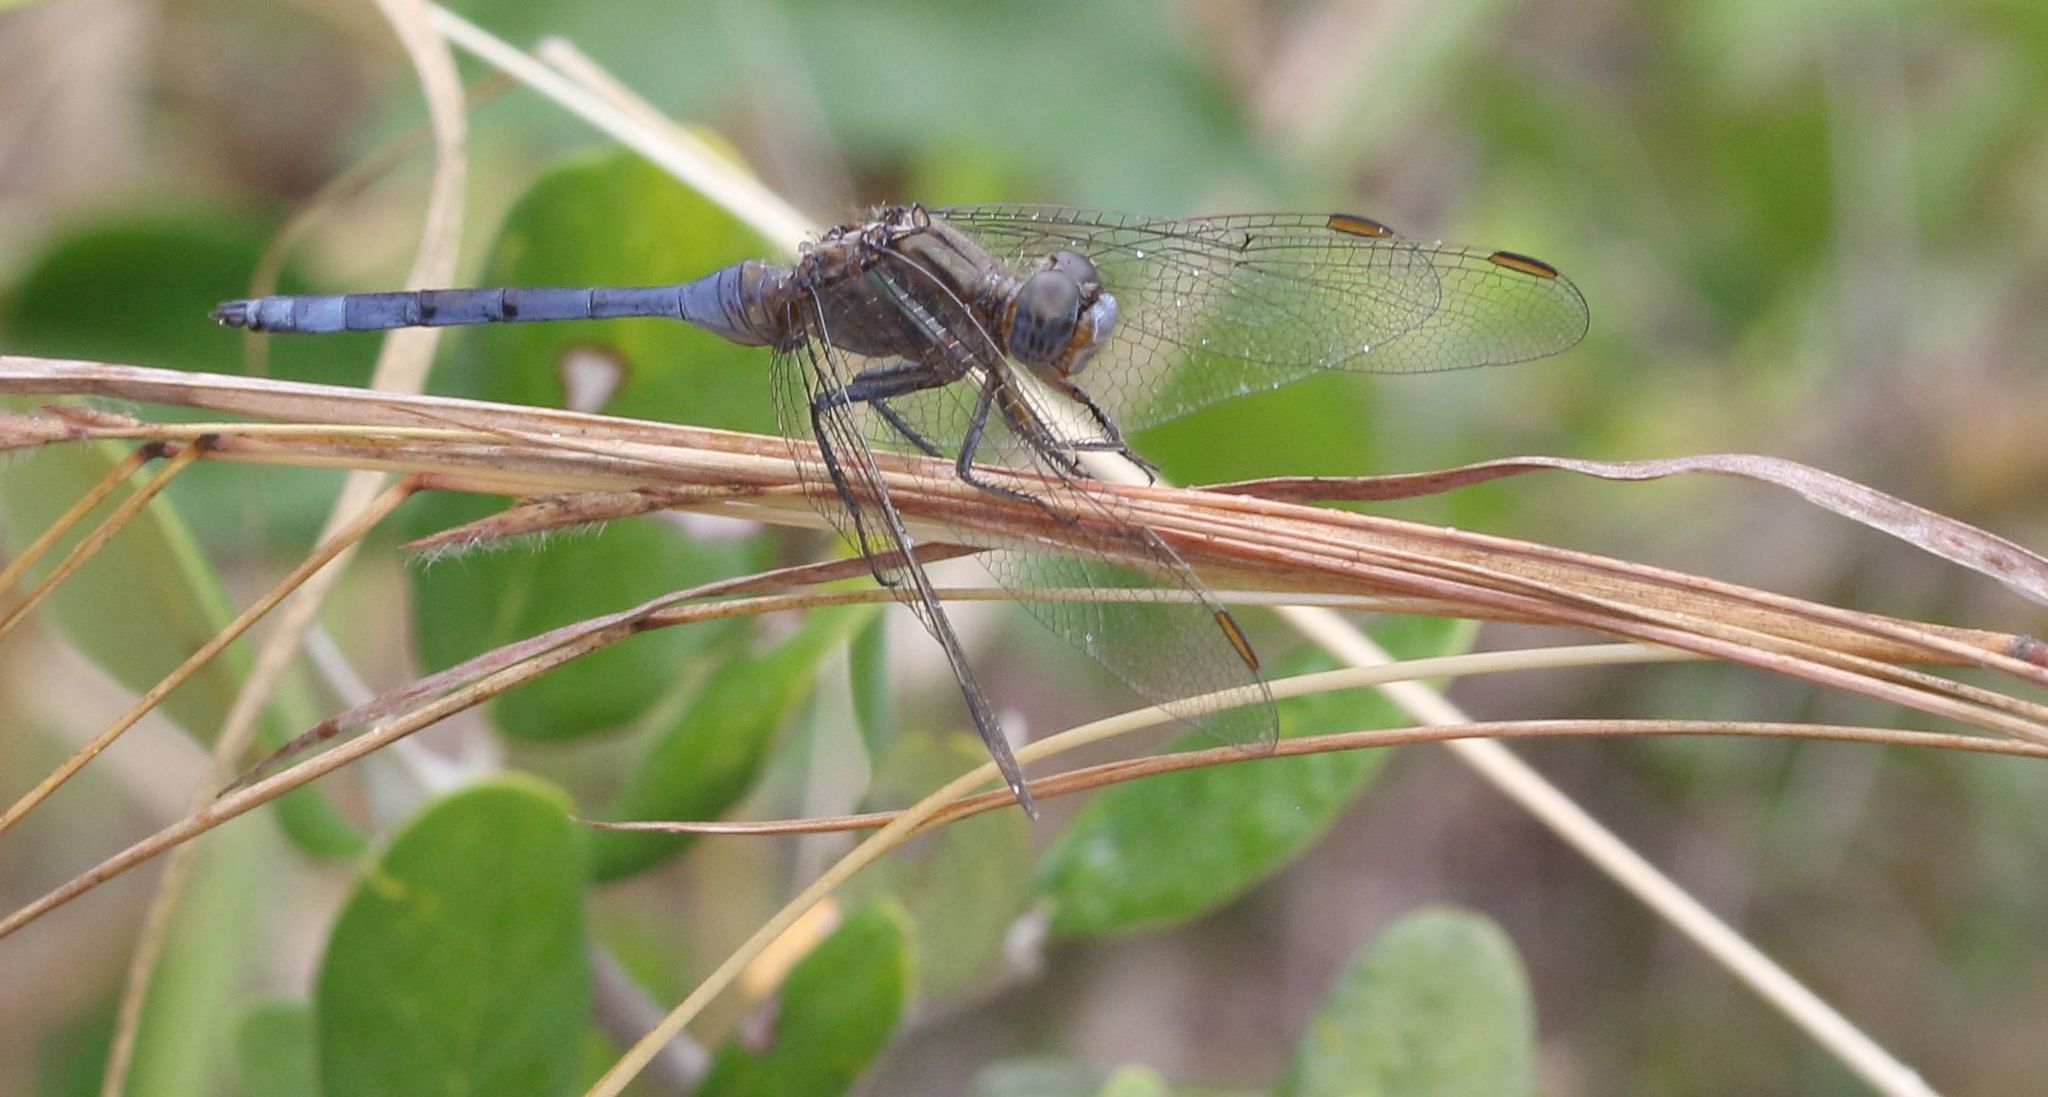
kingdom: Animalia
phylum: Arthropoda
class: Insecta
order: Odonata
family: Libellulidae
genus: Orthetrum
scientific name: Orthetrum chrysostigma
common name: Epaulet skimmer
